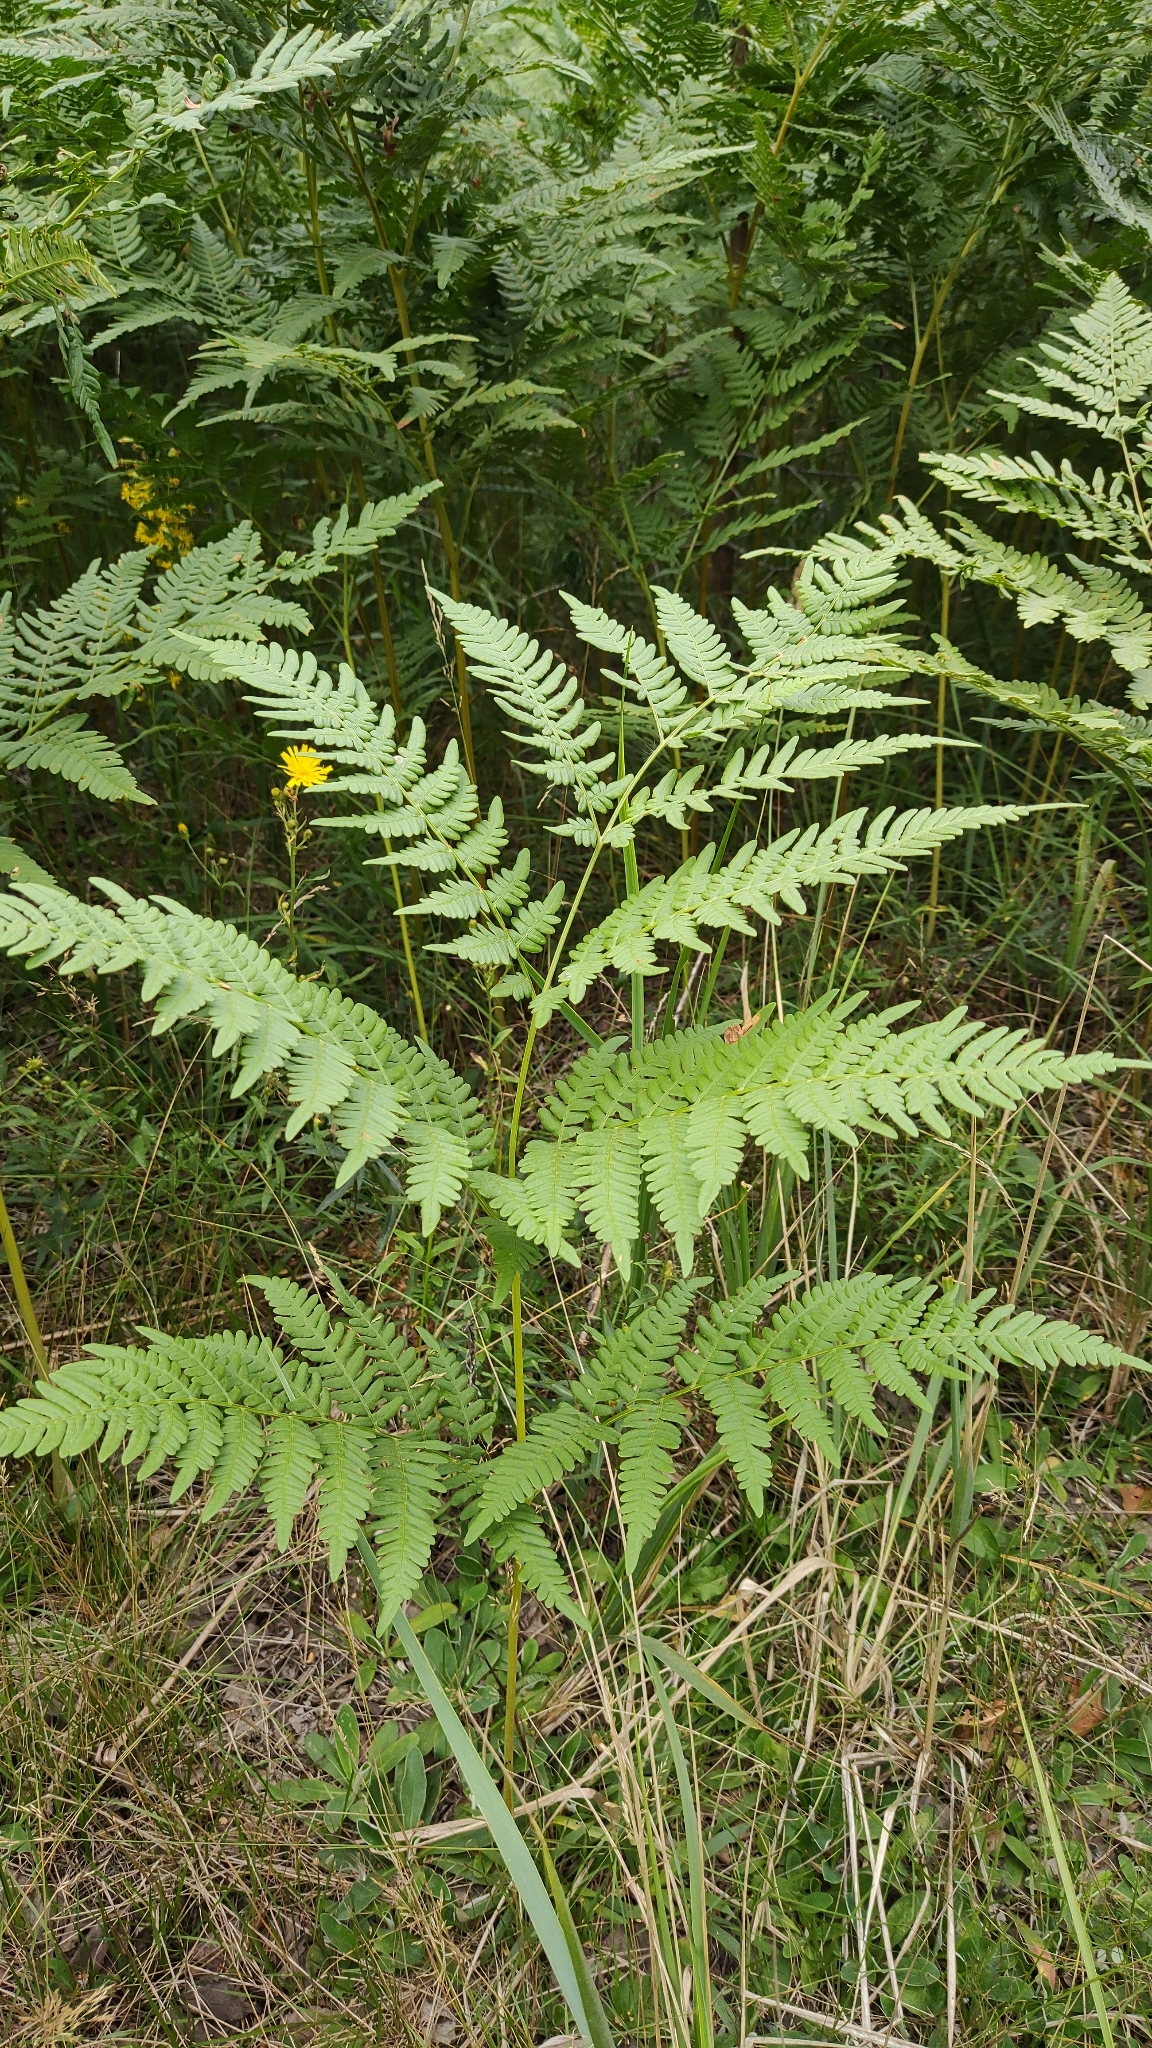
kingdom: Plantae
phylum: Tracheophyta
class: Polypodiopsida
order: Polypodiales
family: Dennstaedtiaceae
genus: Pteridium
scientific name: Pteridium aquilinum
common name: Bracken
